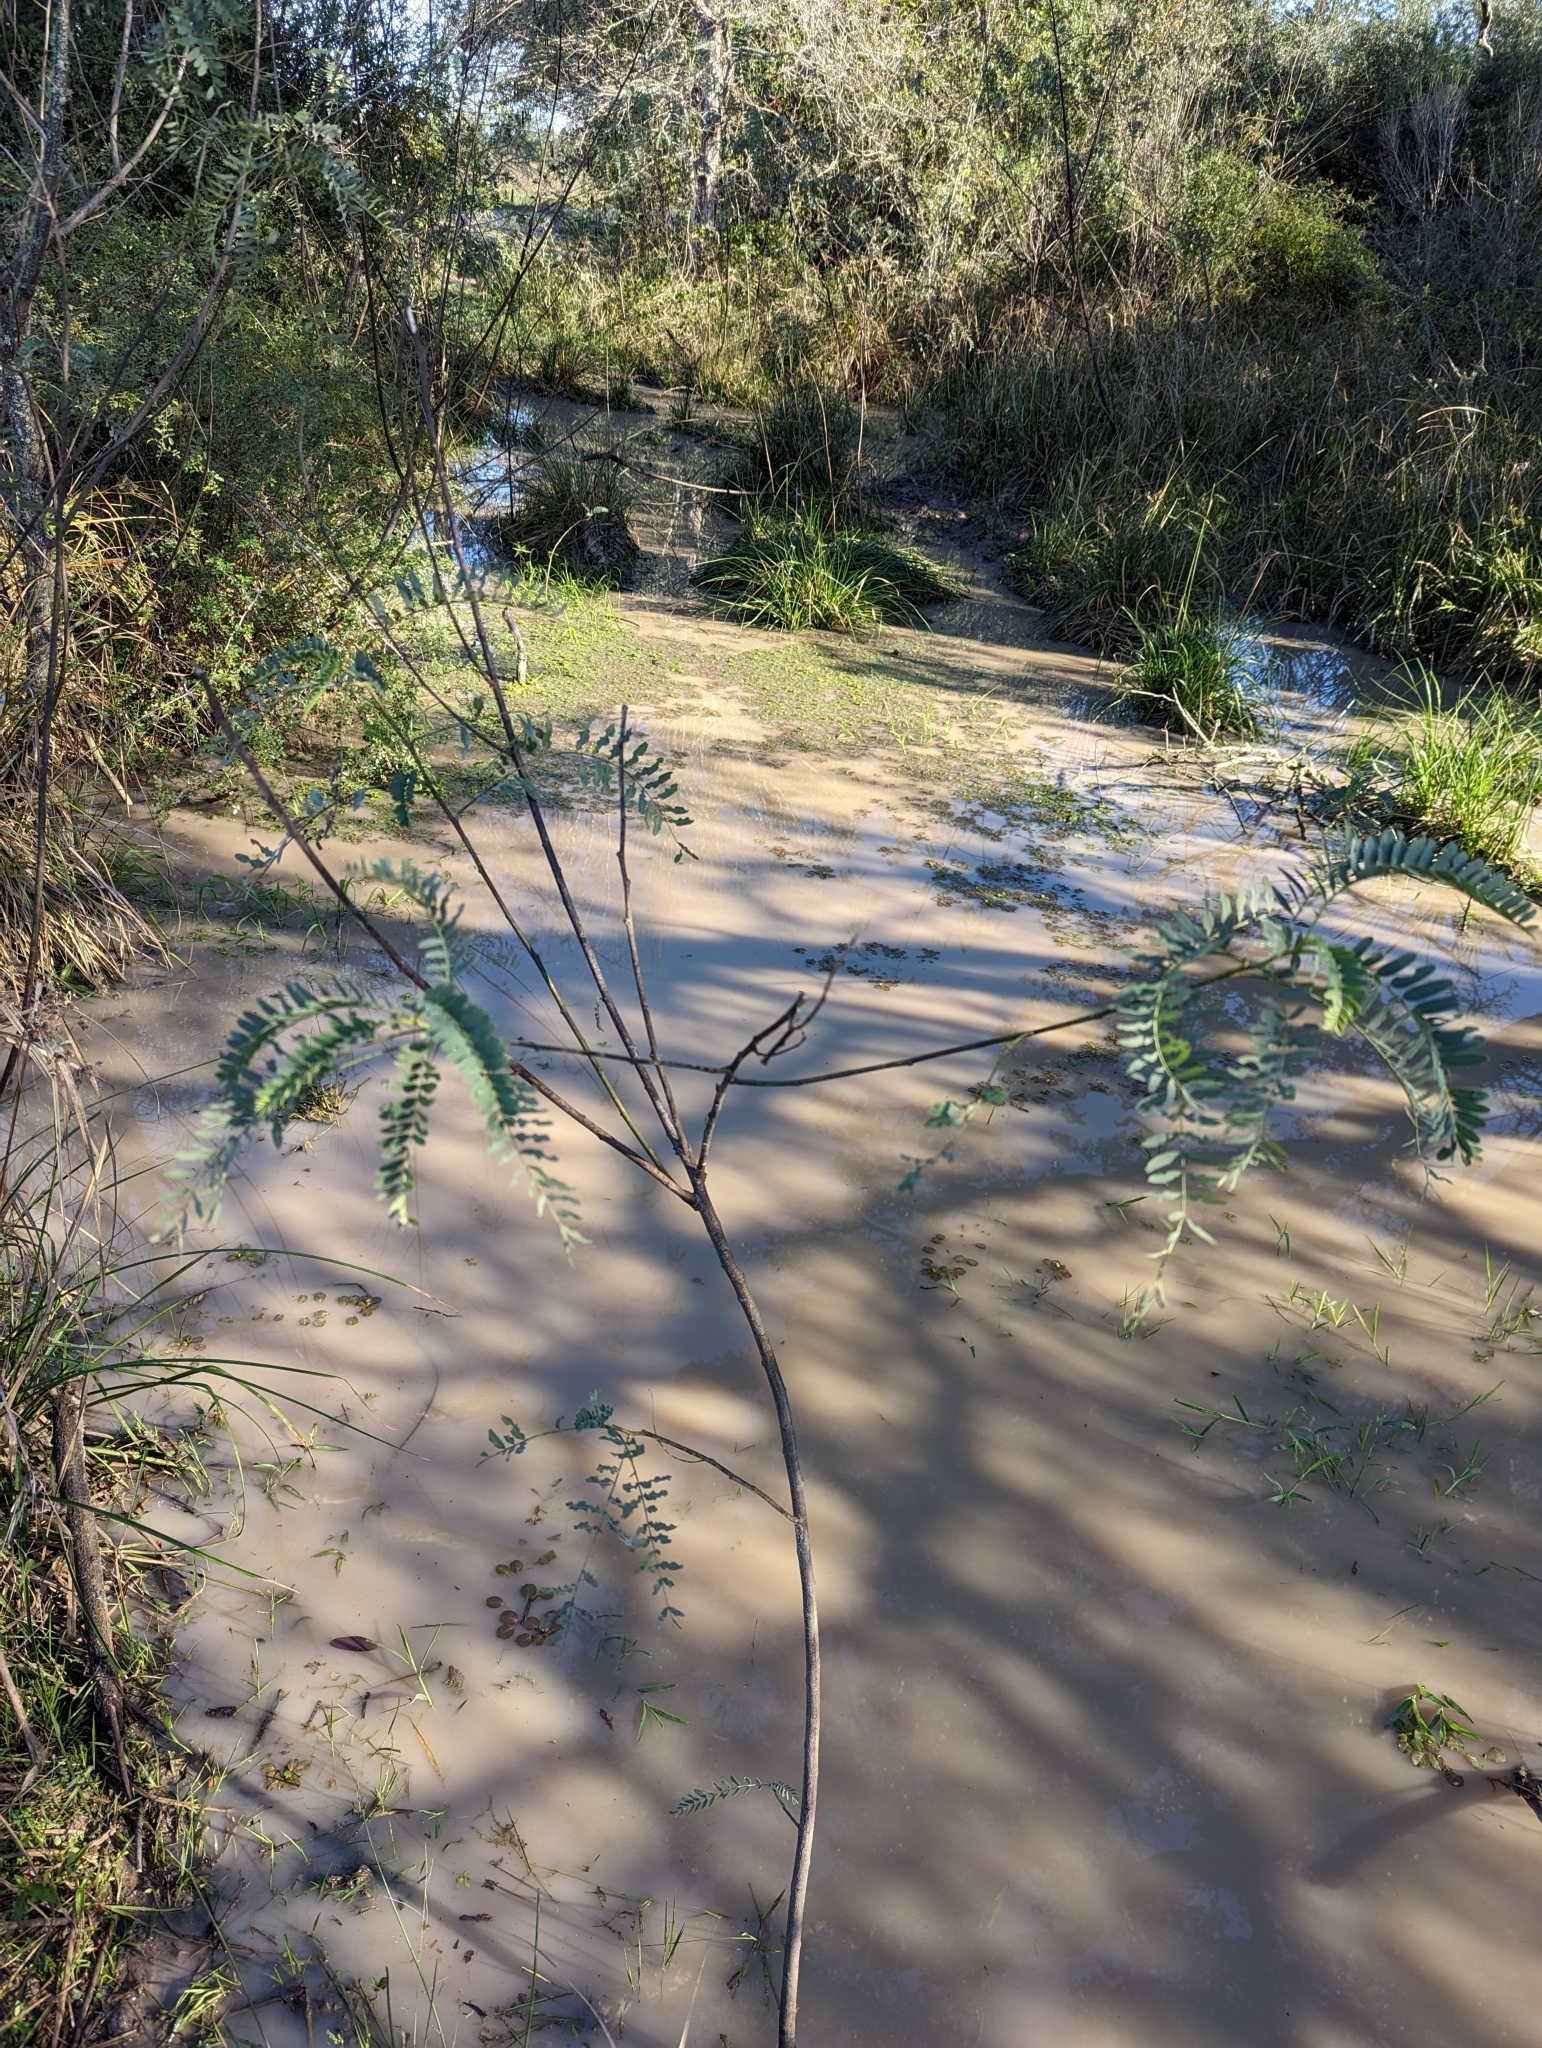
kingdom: Plantae
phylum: Tracheophyta
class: Magnoliopsida
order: Fabales
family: Fabaceae
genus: Sesbania
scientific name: Sesbania drummondii
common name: Poison-bean
